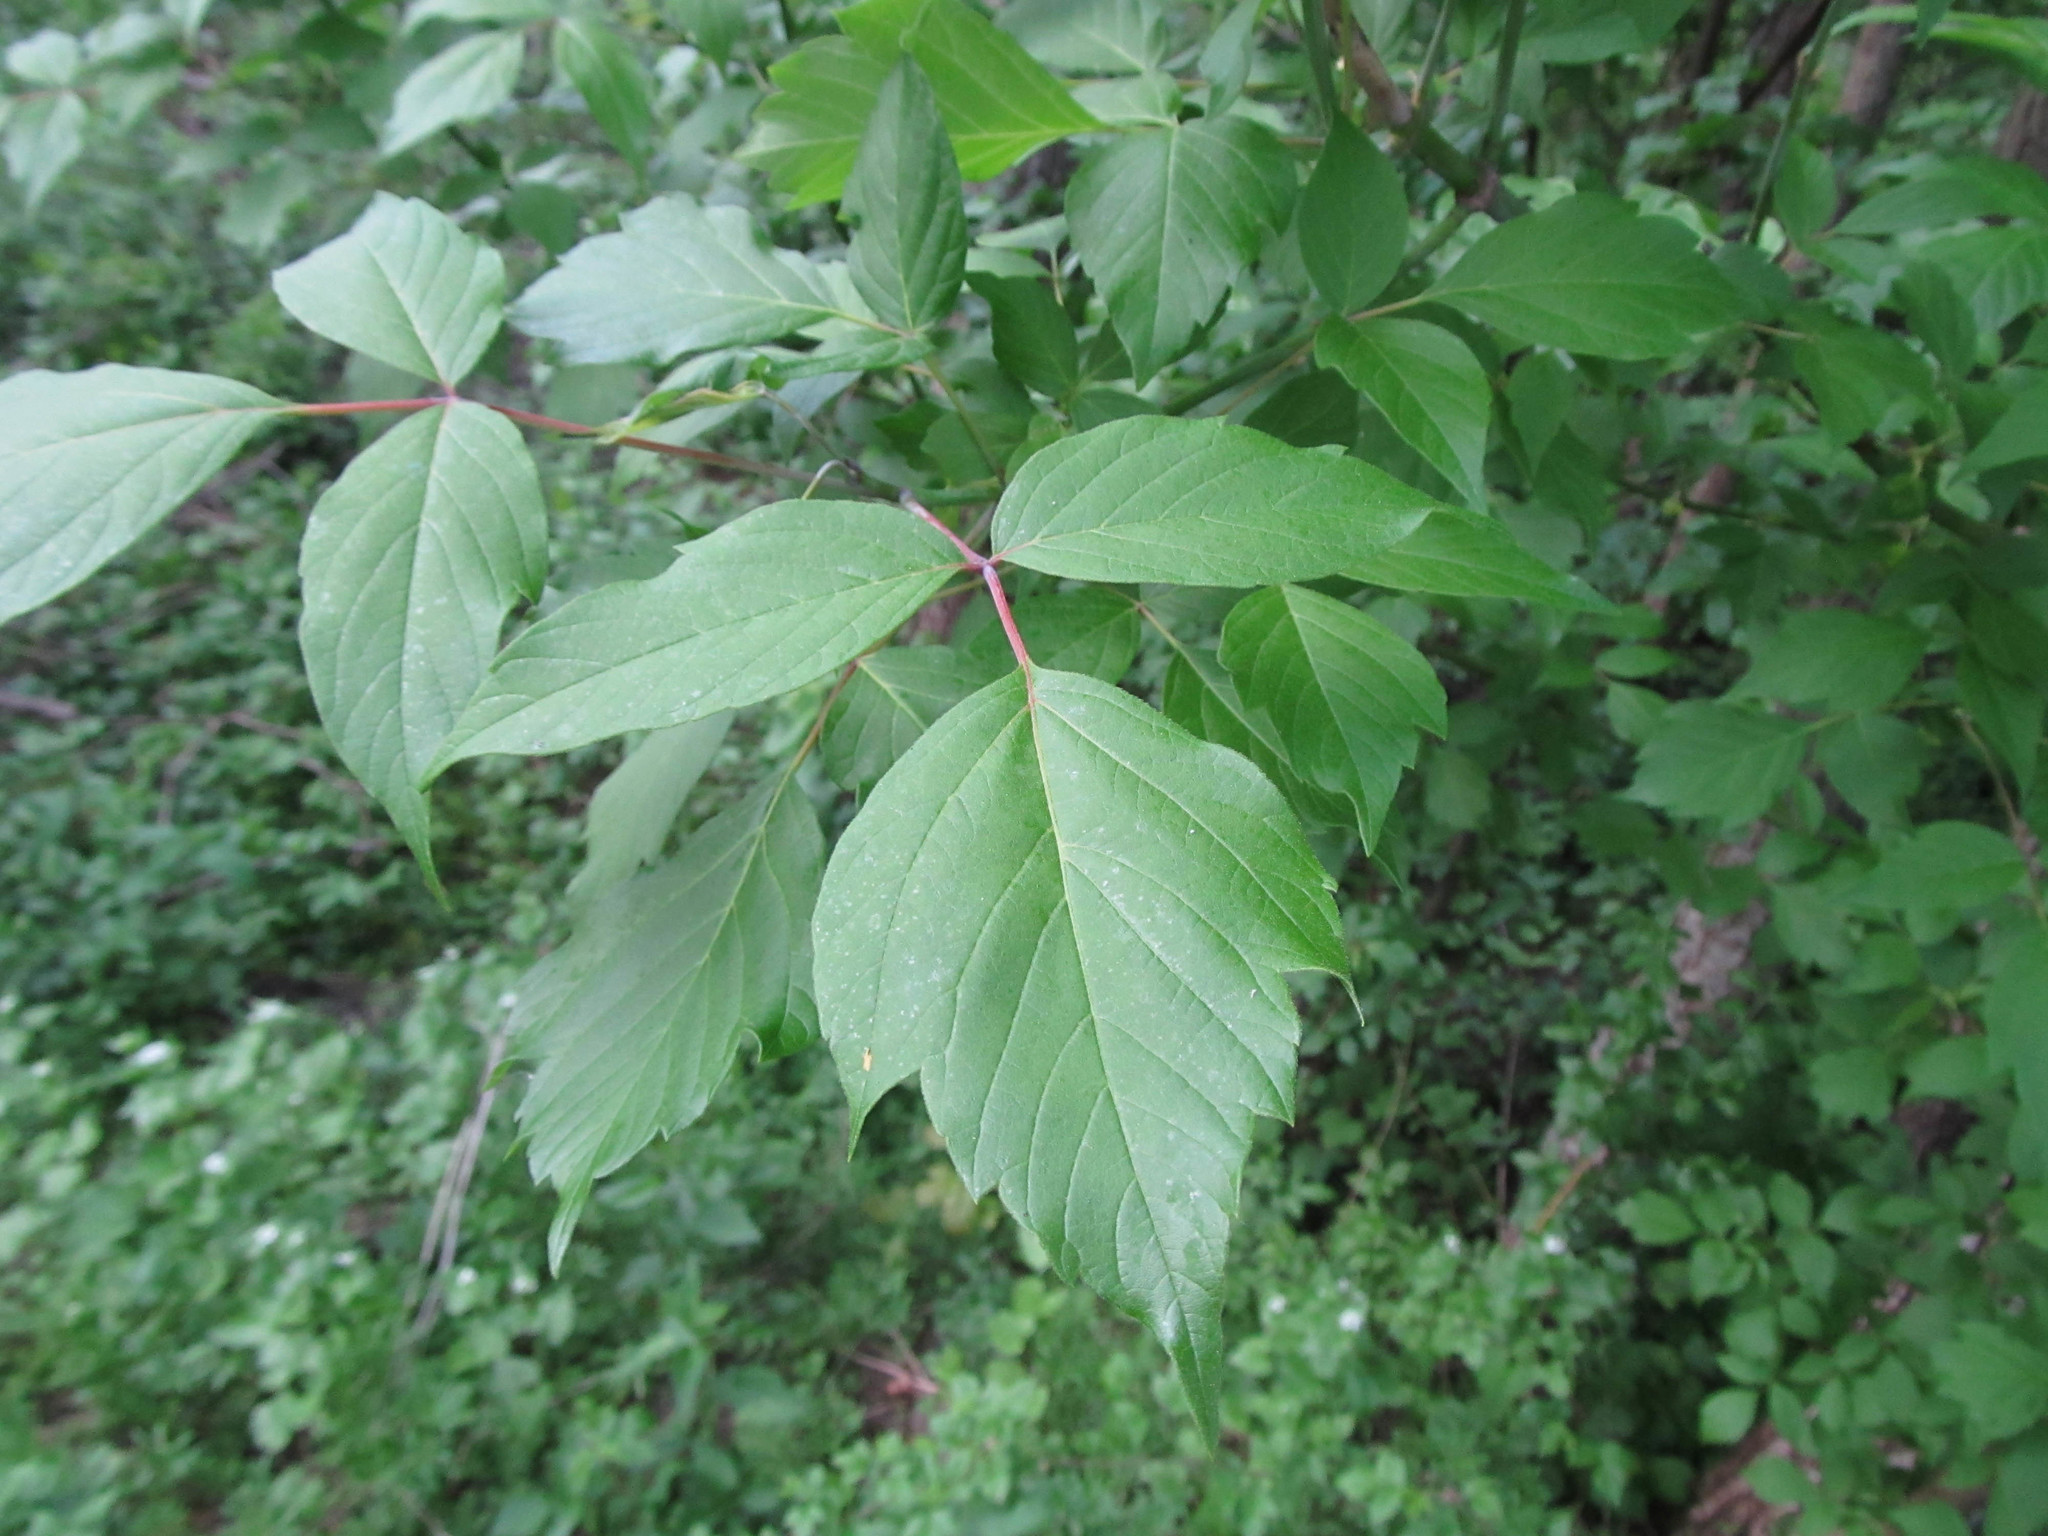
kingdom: Plantae
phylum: Tracheophyta
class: Magnoliopsida
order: Sapindales
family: Sapindaceae
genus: Acer
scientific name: Acer negundo
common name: Ashleaf maple
